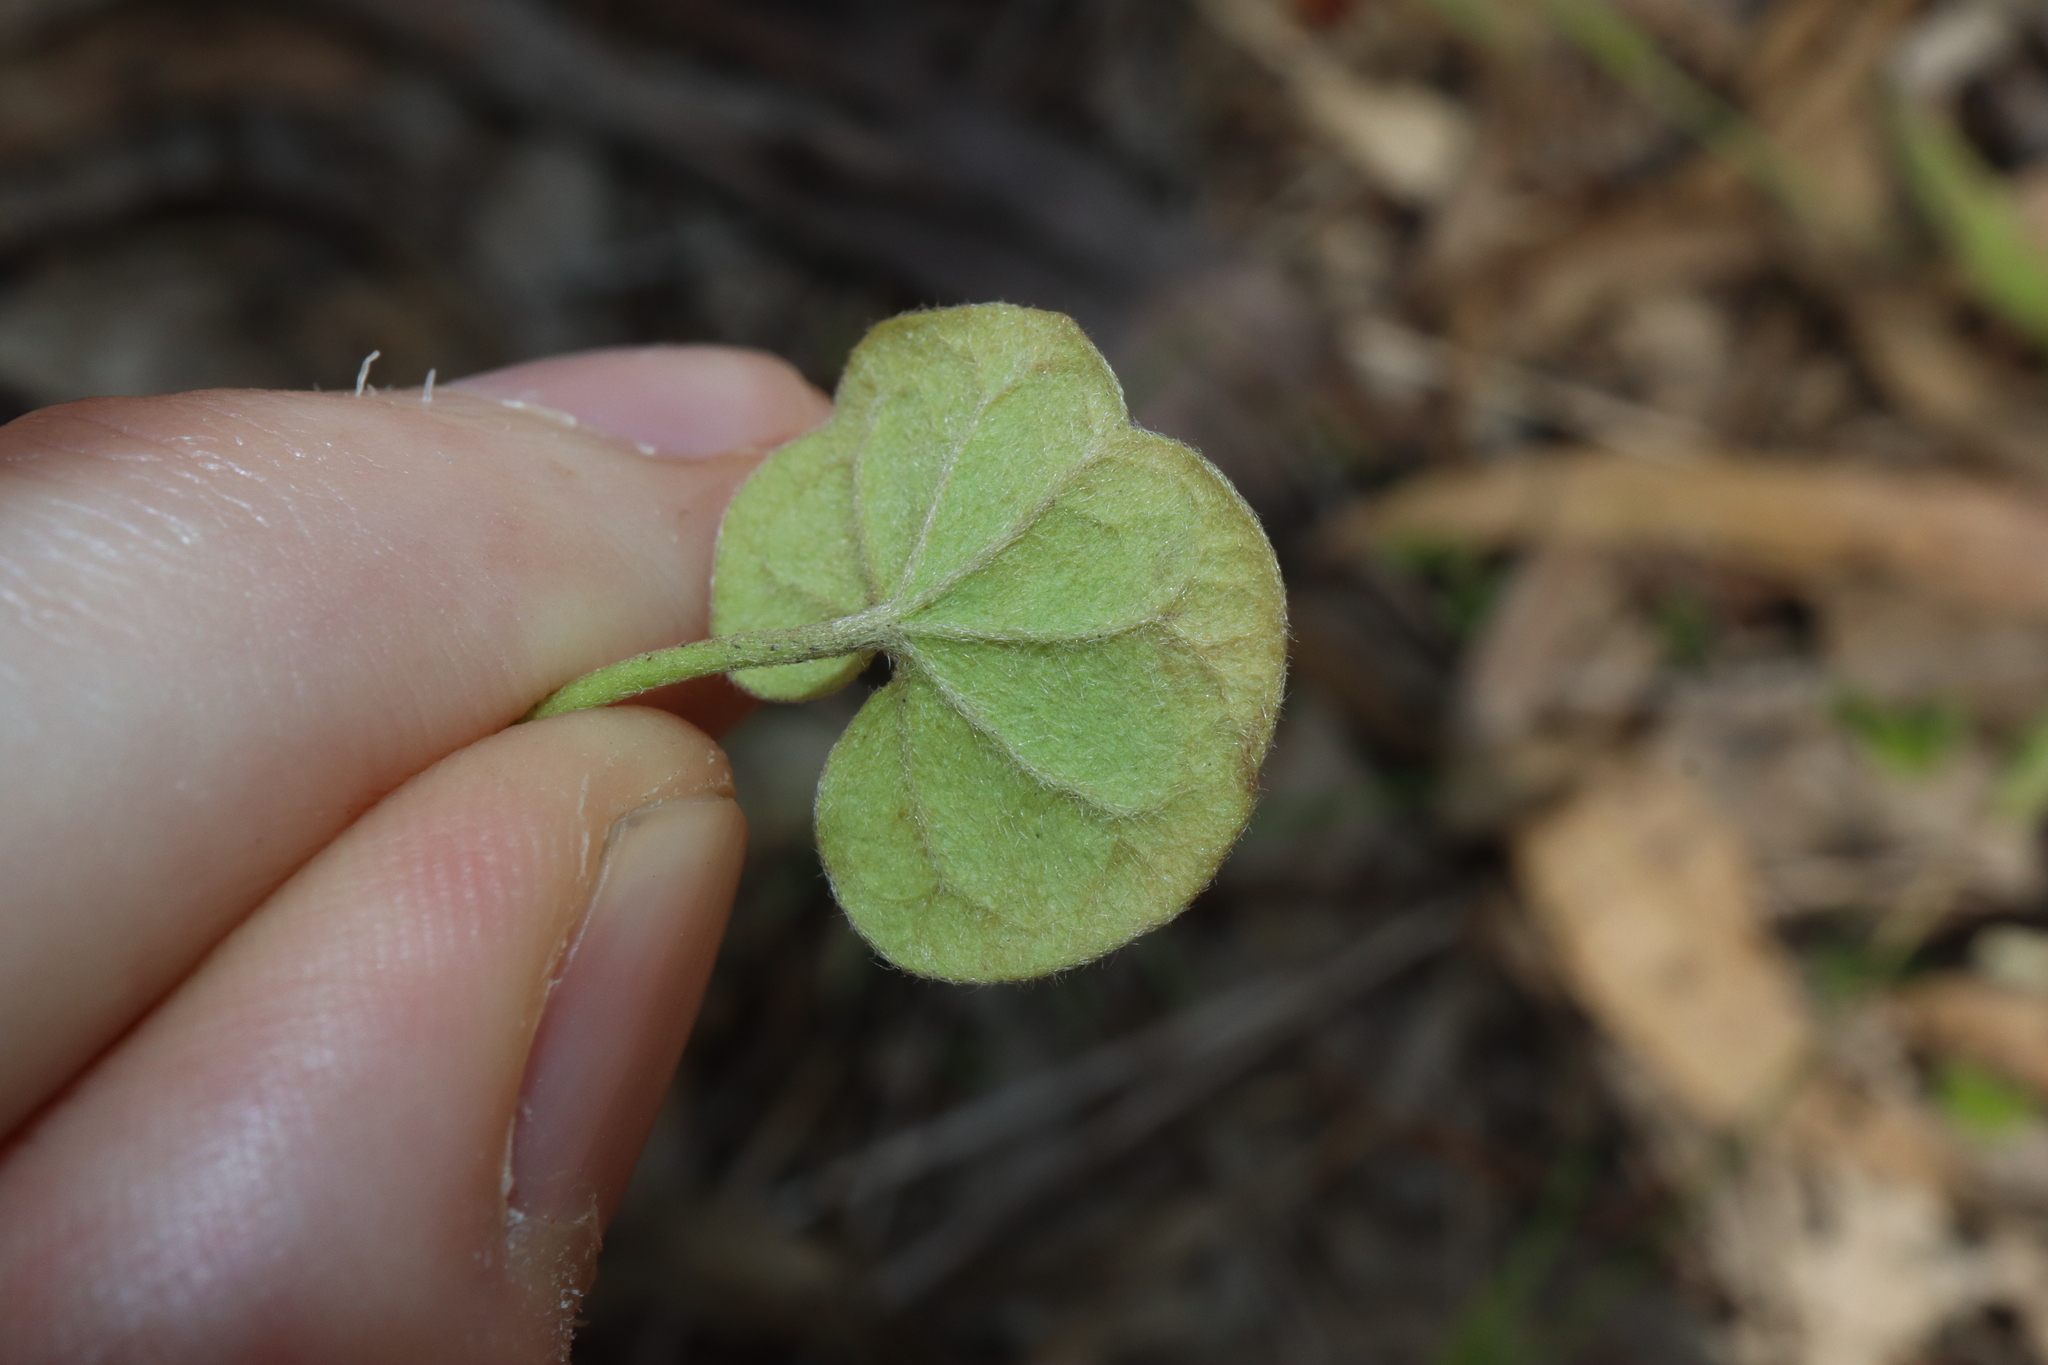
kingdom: Plantae
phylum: Tracheophyta
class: Magnoliopsida
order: Solanales
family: Convolvulaceae
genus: Dichondra
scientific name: Dichondra repens
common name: Kidneyweed
